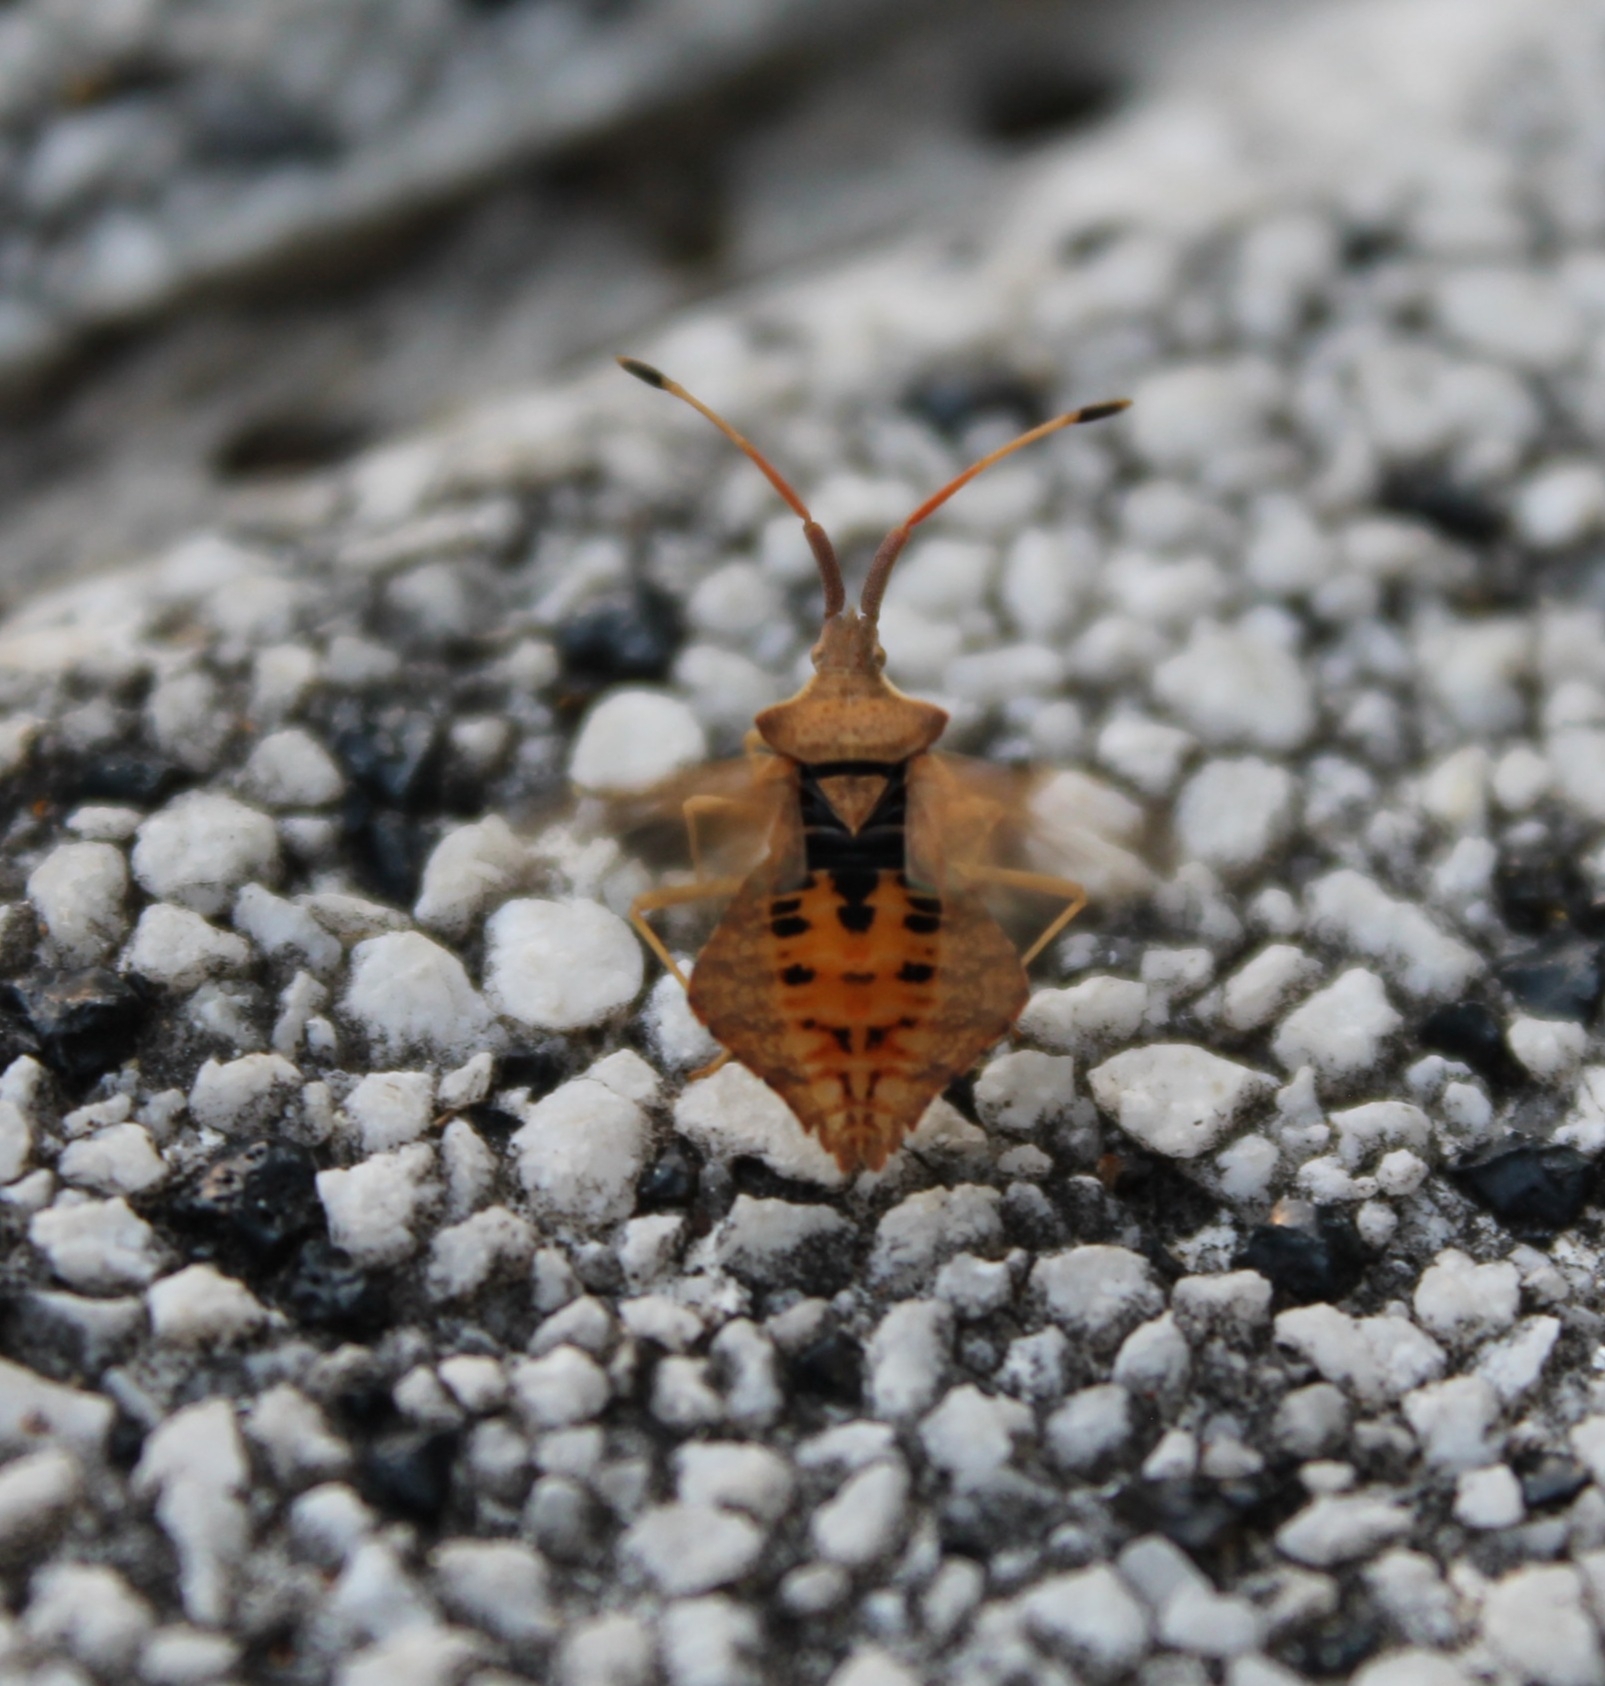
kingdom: Animalia
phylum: Arthropoda
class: Insecta
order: Hemiptera
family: Coreidae
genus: Syromastus
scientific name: Syromastus rhombeus
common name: Rhombic leatherbug
